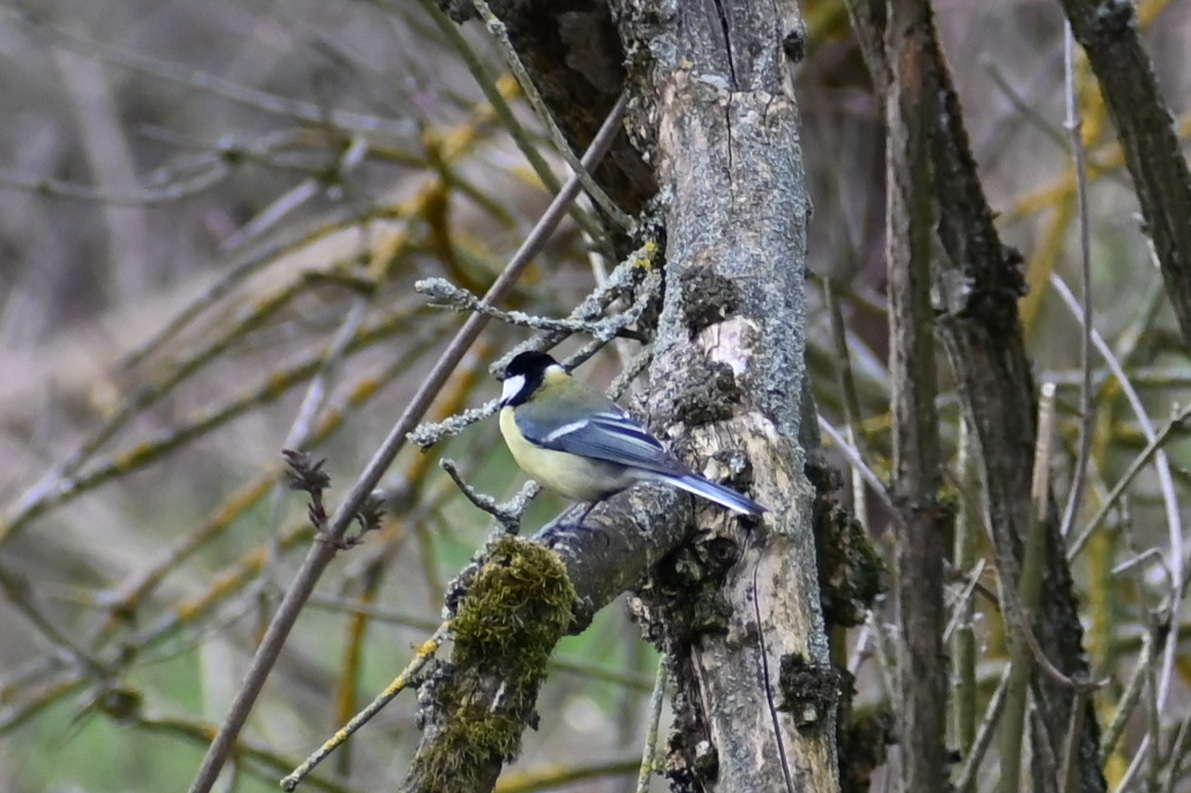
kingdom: Animalia
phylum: Chordata
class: Aves
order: Passeriformes
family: Paridae
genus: Parus
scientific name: Parus major
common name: Great tit
